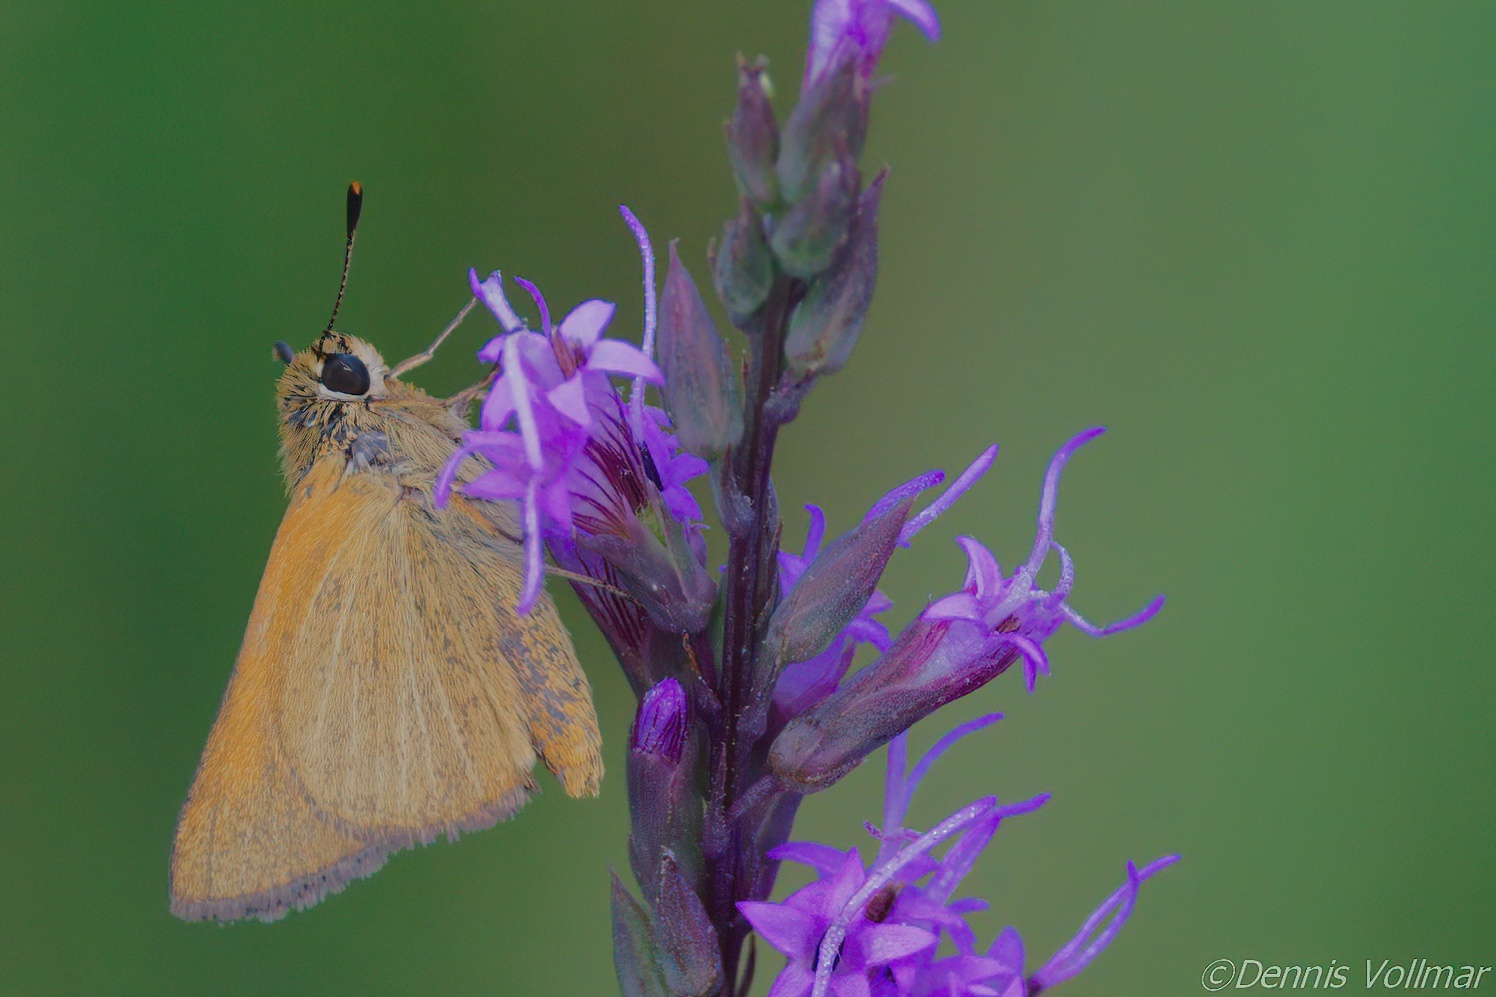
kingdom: Animalia
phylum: Arthropoda
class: Insecta
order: Lepidoptera
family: Hesperiidae
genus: Atrytone
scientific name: Atrytone arogos
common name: Arogos skipper
